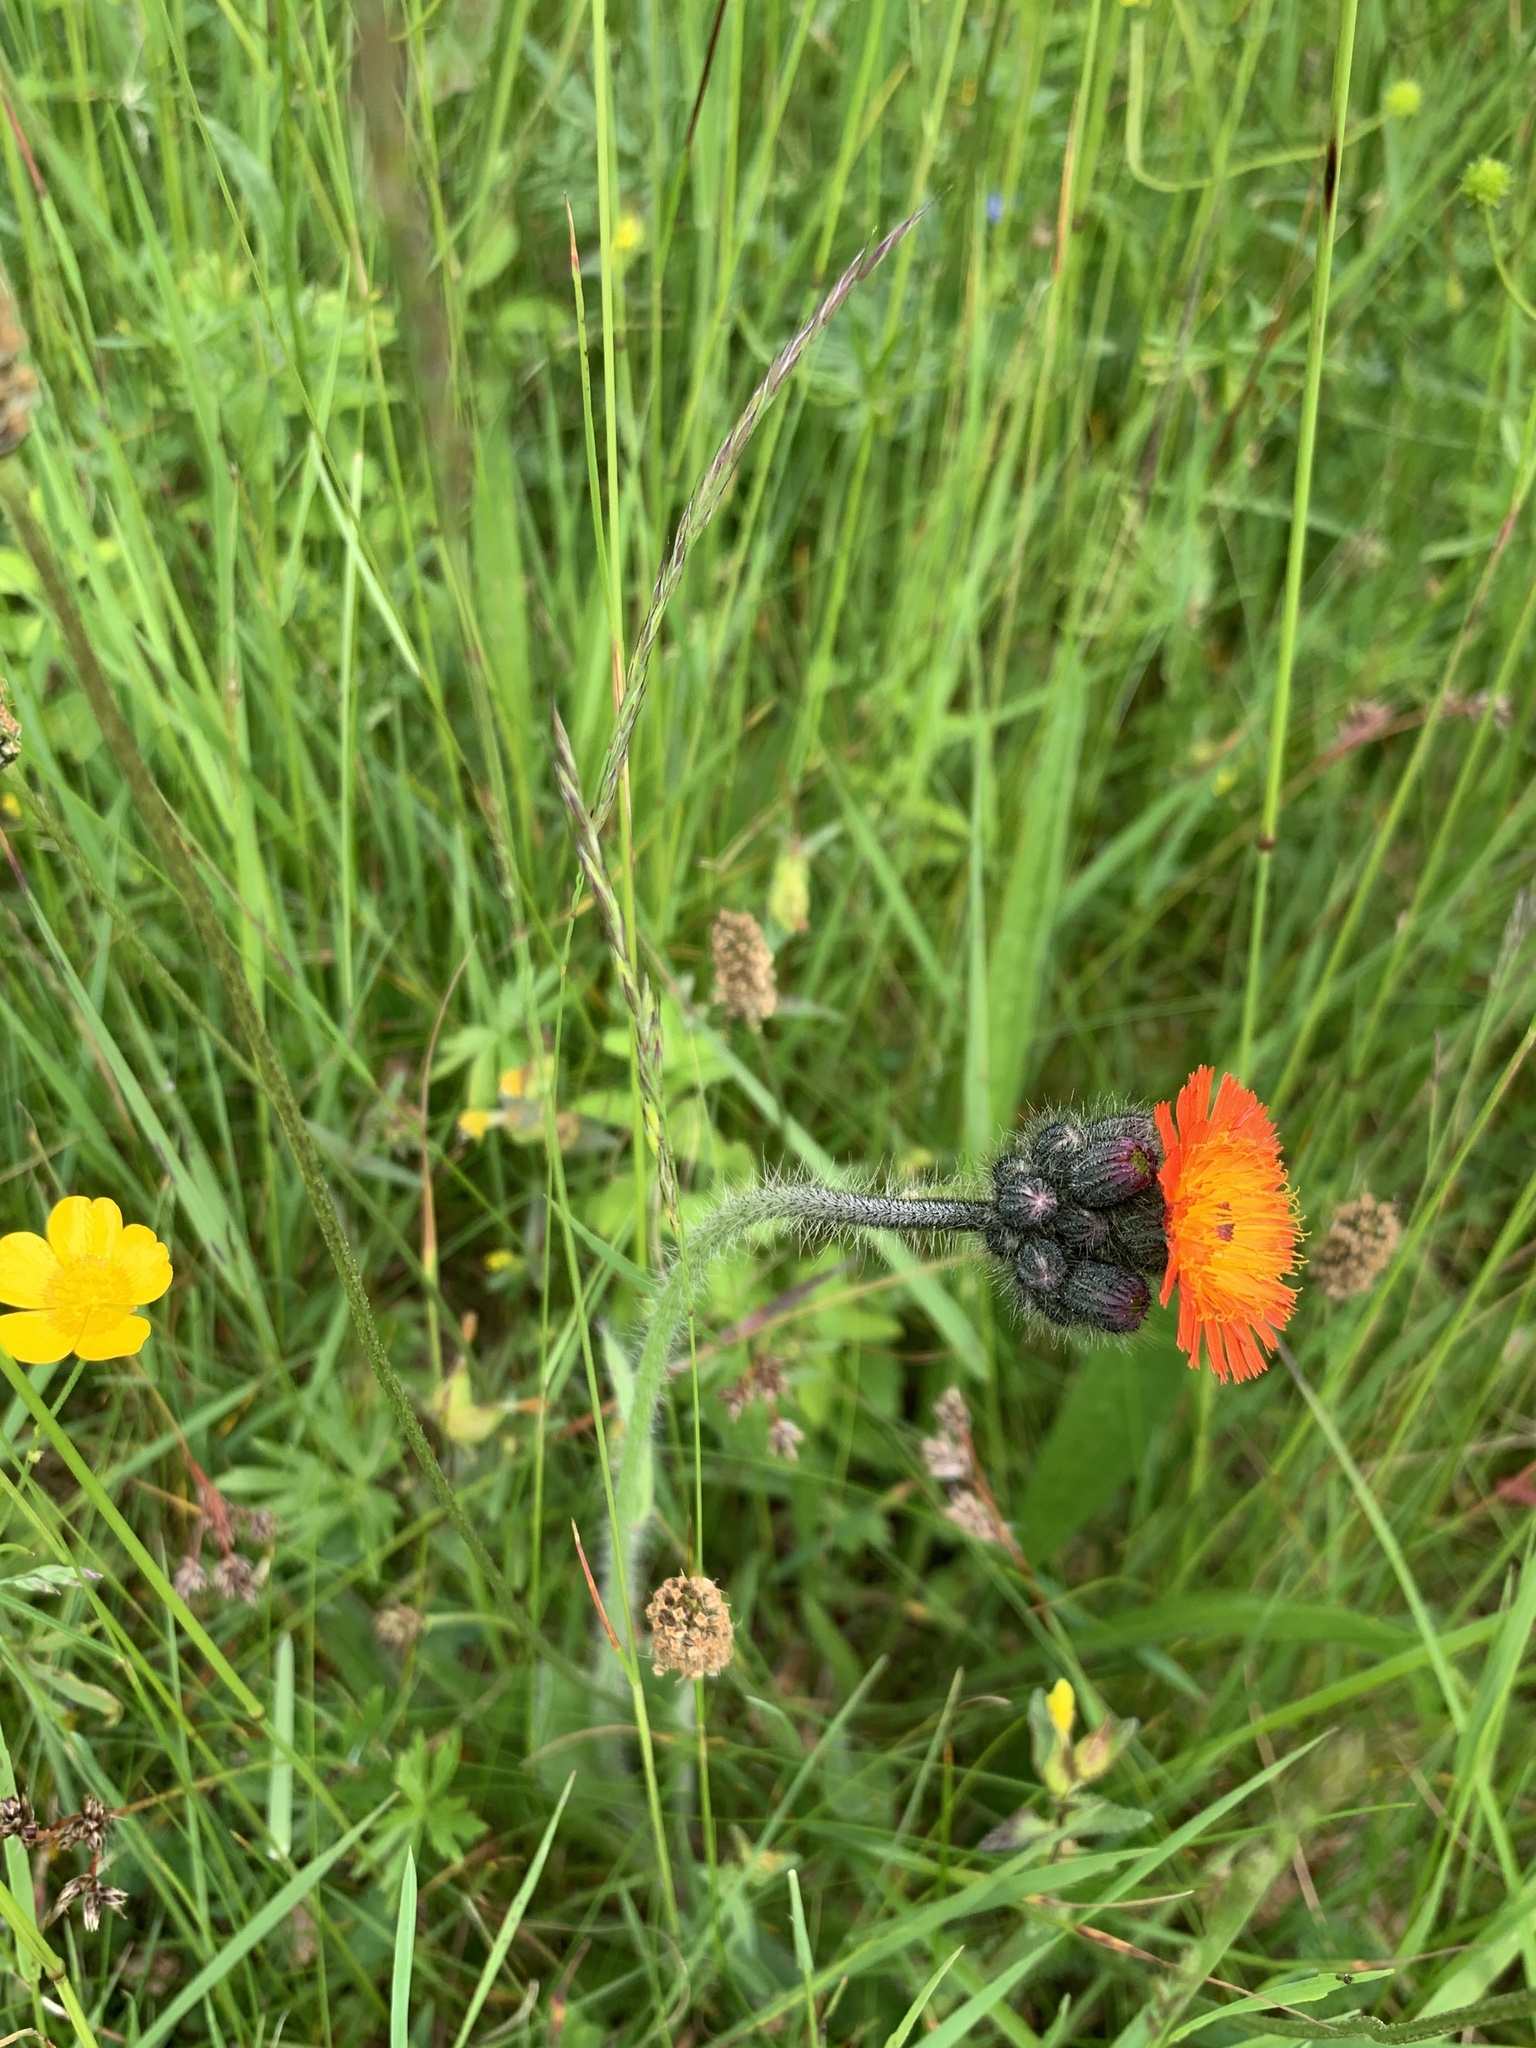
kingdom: Plantae
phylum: Tracheophyta
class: Magnoliopsida
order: Asterales
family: Asteraceae
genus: Pilosella
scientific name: Pilosella aurantiaca
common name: Fox-and-cubs
